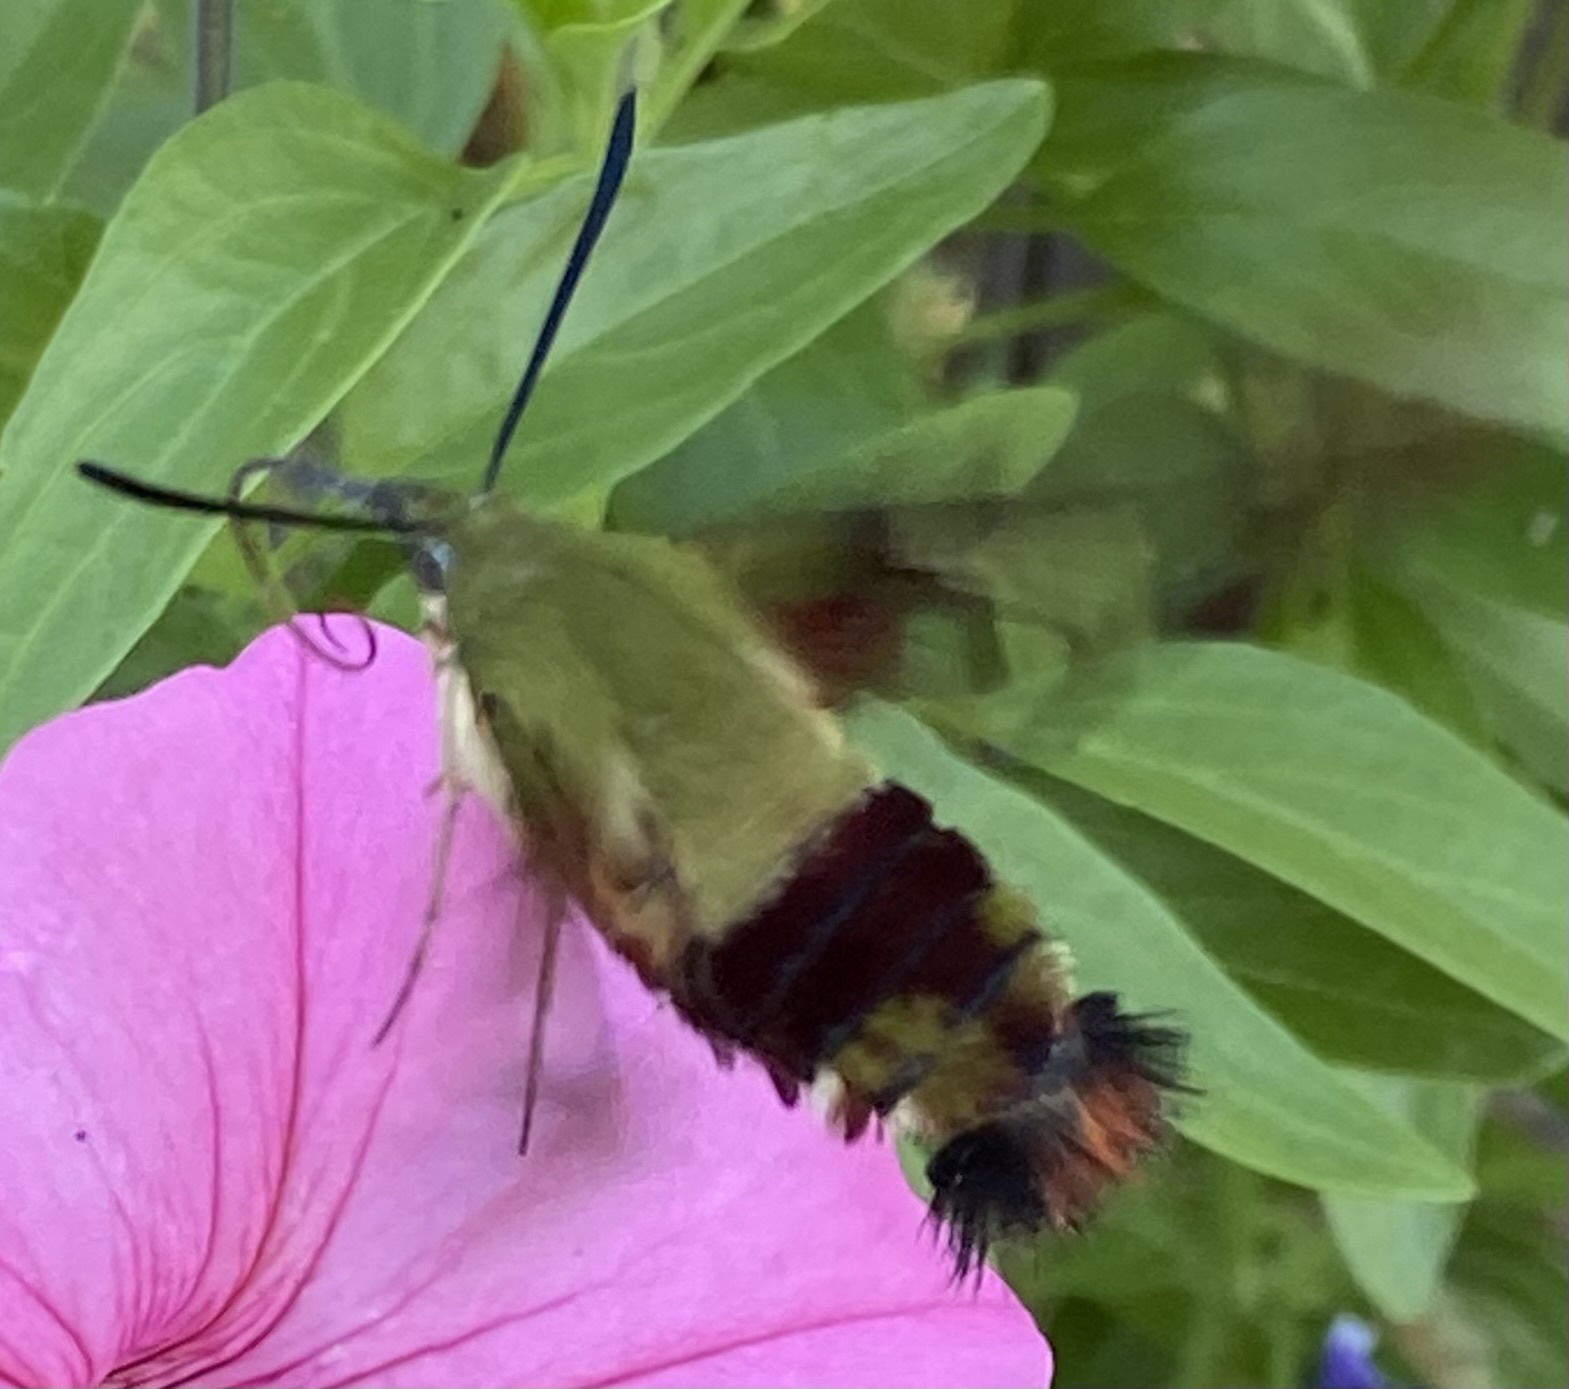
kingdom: Animalia
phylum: Arthropoda
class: Insecta
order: Lepidoptera
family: Sphingidae
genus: Hemaris
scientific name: Hemaris thysbe
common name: Common clear-wing
